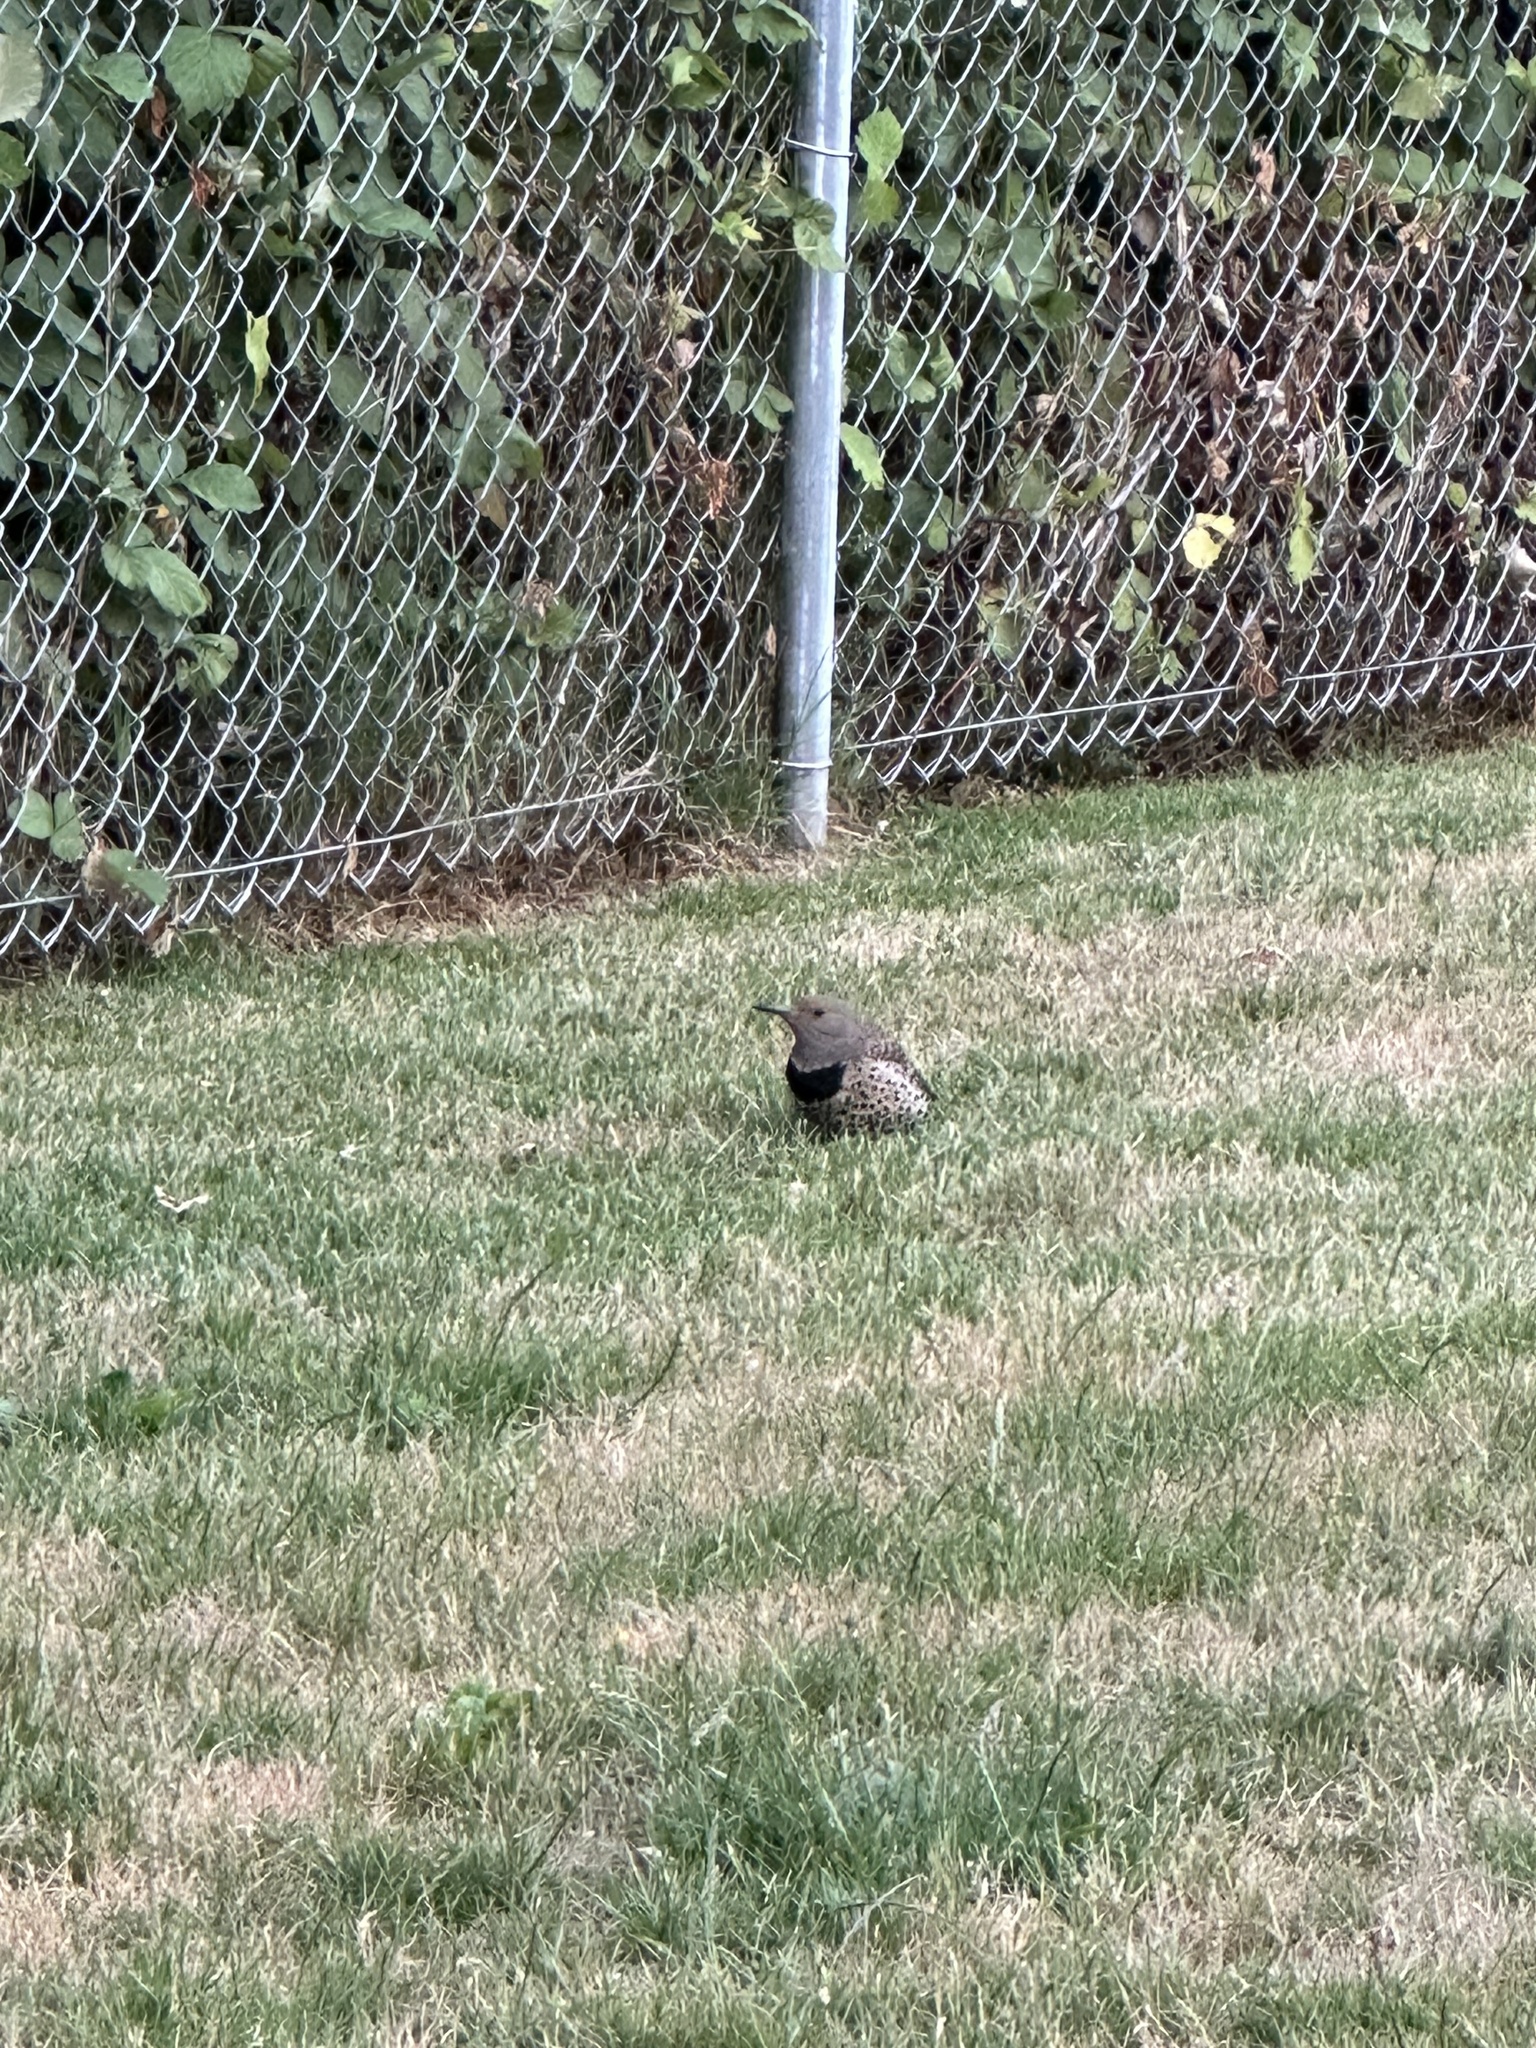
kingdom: Animalia
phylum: Chordata
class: Aves
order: Piciformes
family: Picidae
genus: Colaptes
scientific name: Colaptes auratus
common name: Northern flicker
